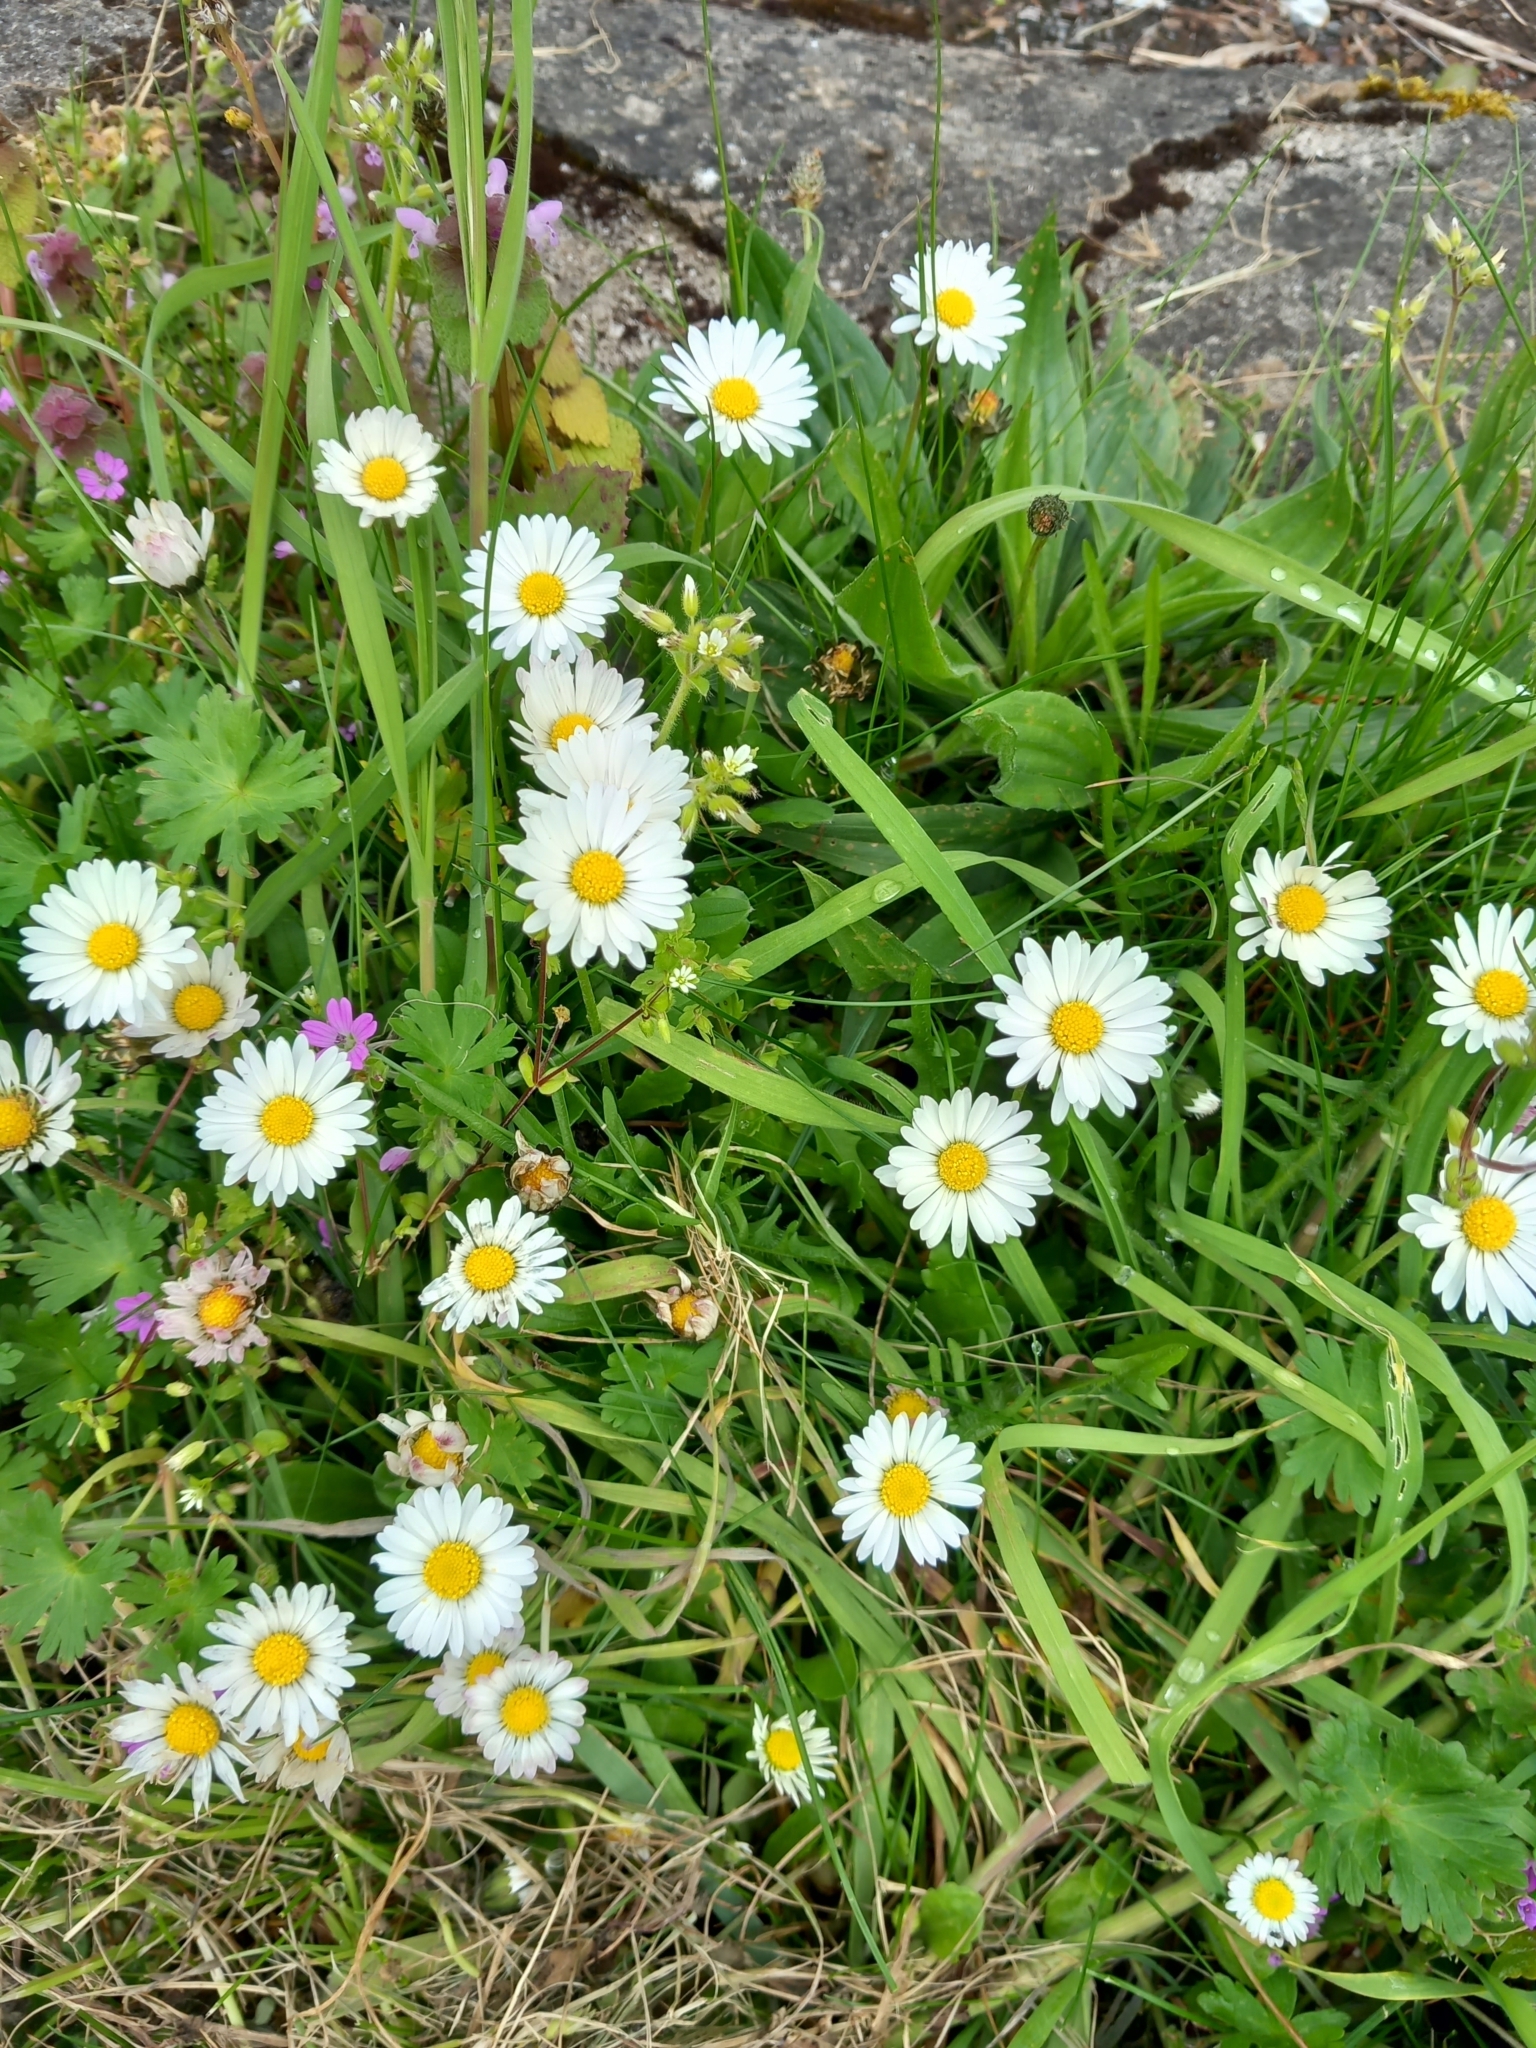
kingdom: Plantae
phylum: Tracheophyta
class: Magnoliopsida
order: Asterales
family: Asteraceae
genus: Bellis
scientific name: Bellis perennis
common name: Lawndaisy
